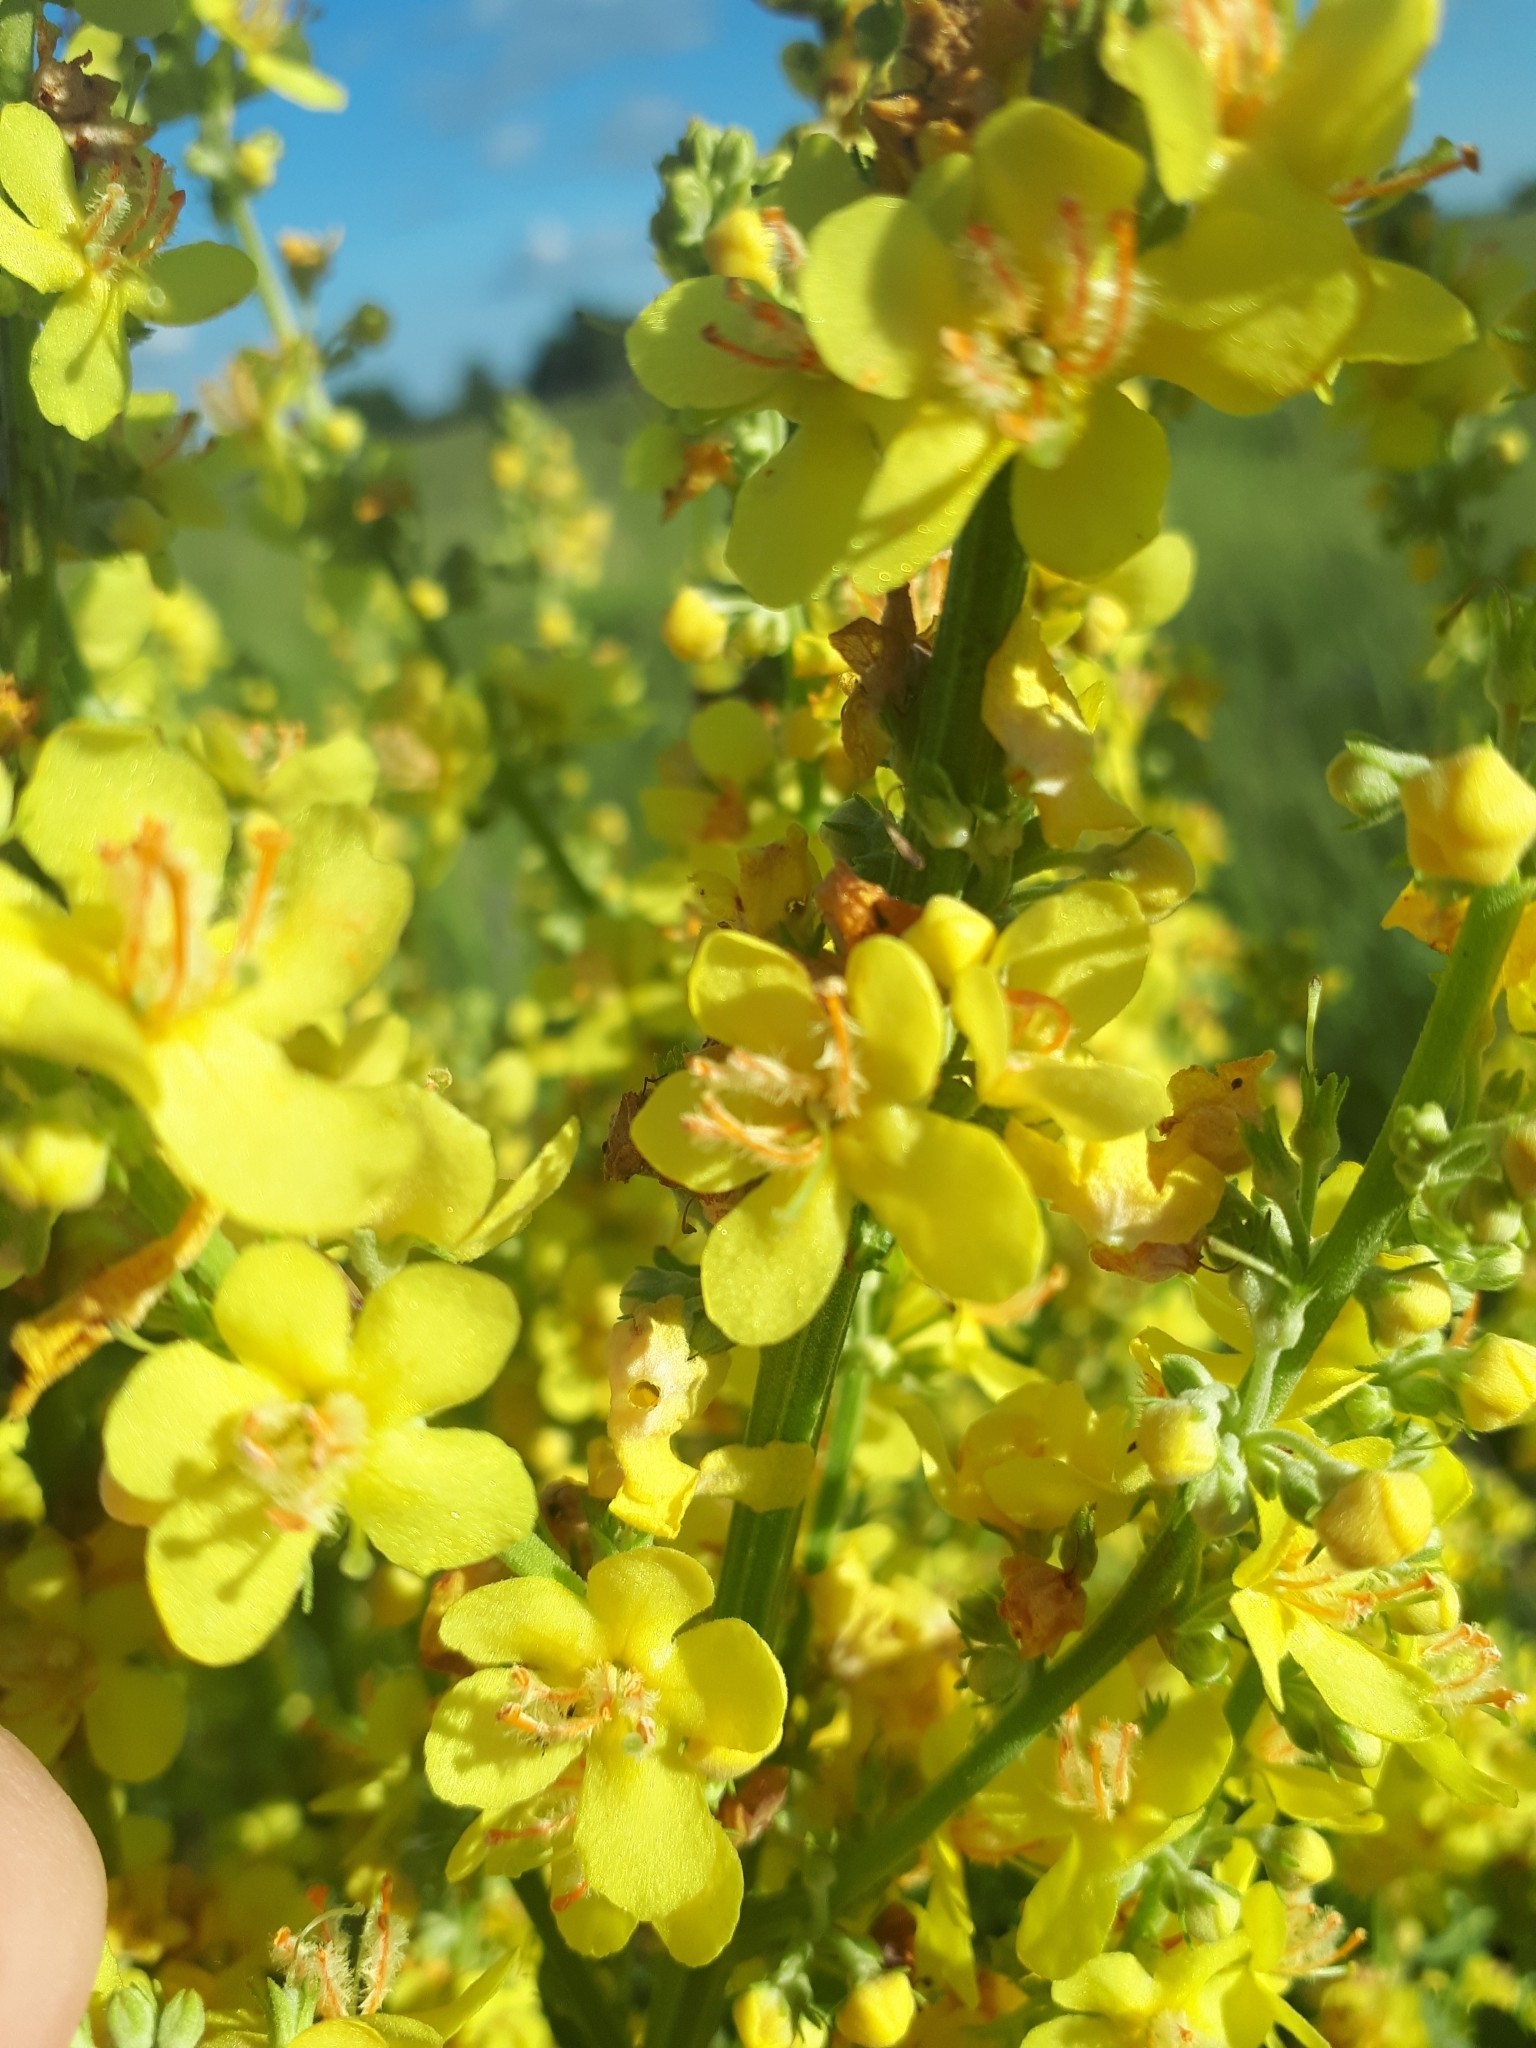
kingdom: Plantae
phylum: Tracheophyta
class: Magnoliopsida
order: Lamiales
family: Scrophulariaceae
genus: Verbascum
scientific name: Verbascum lychnitis
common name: White mullein
